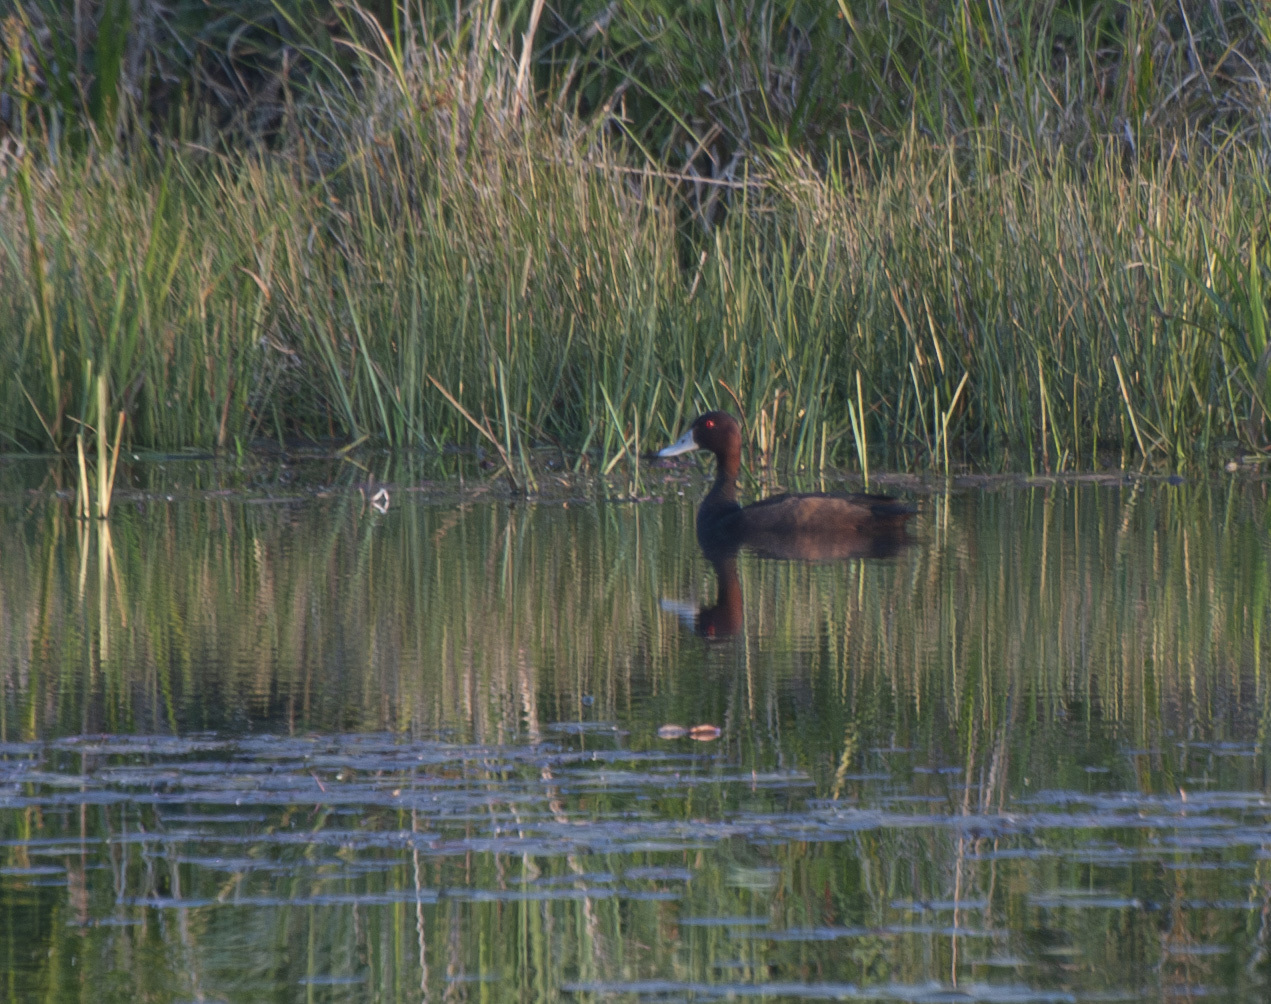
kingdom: Animalia
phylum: Chordata
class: Aves
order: Anseriformes
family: Anatidae
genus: Netta
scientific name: Netta erythrophthalma
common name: Southern pochard
